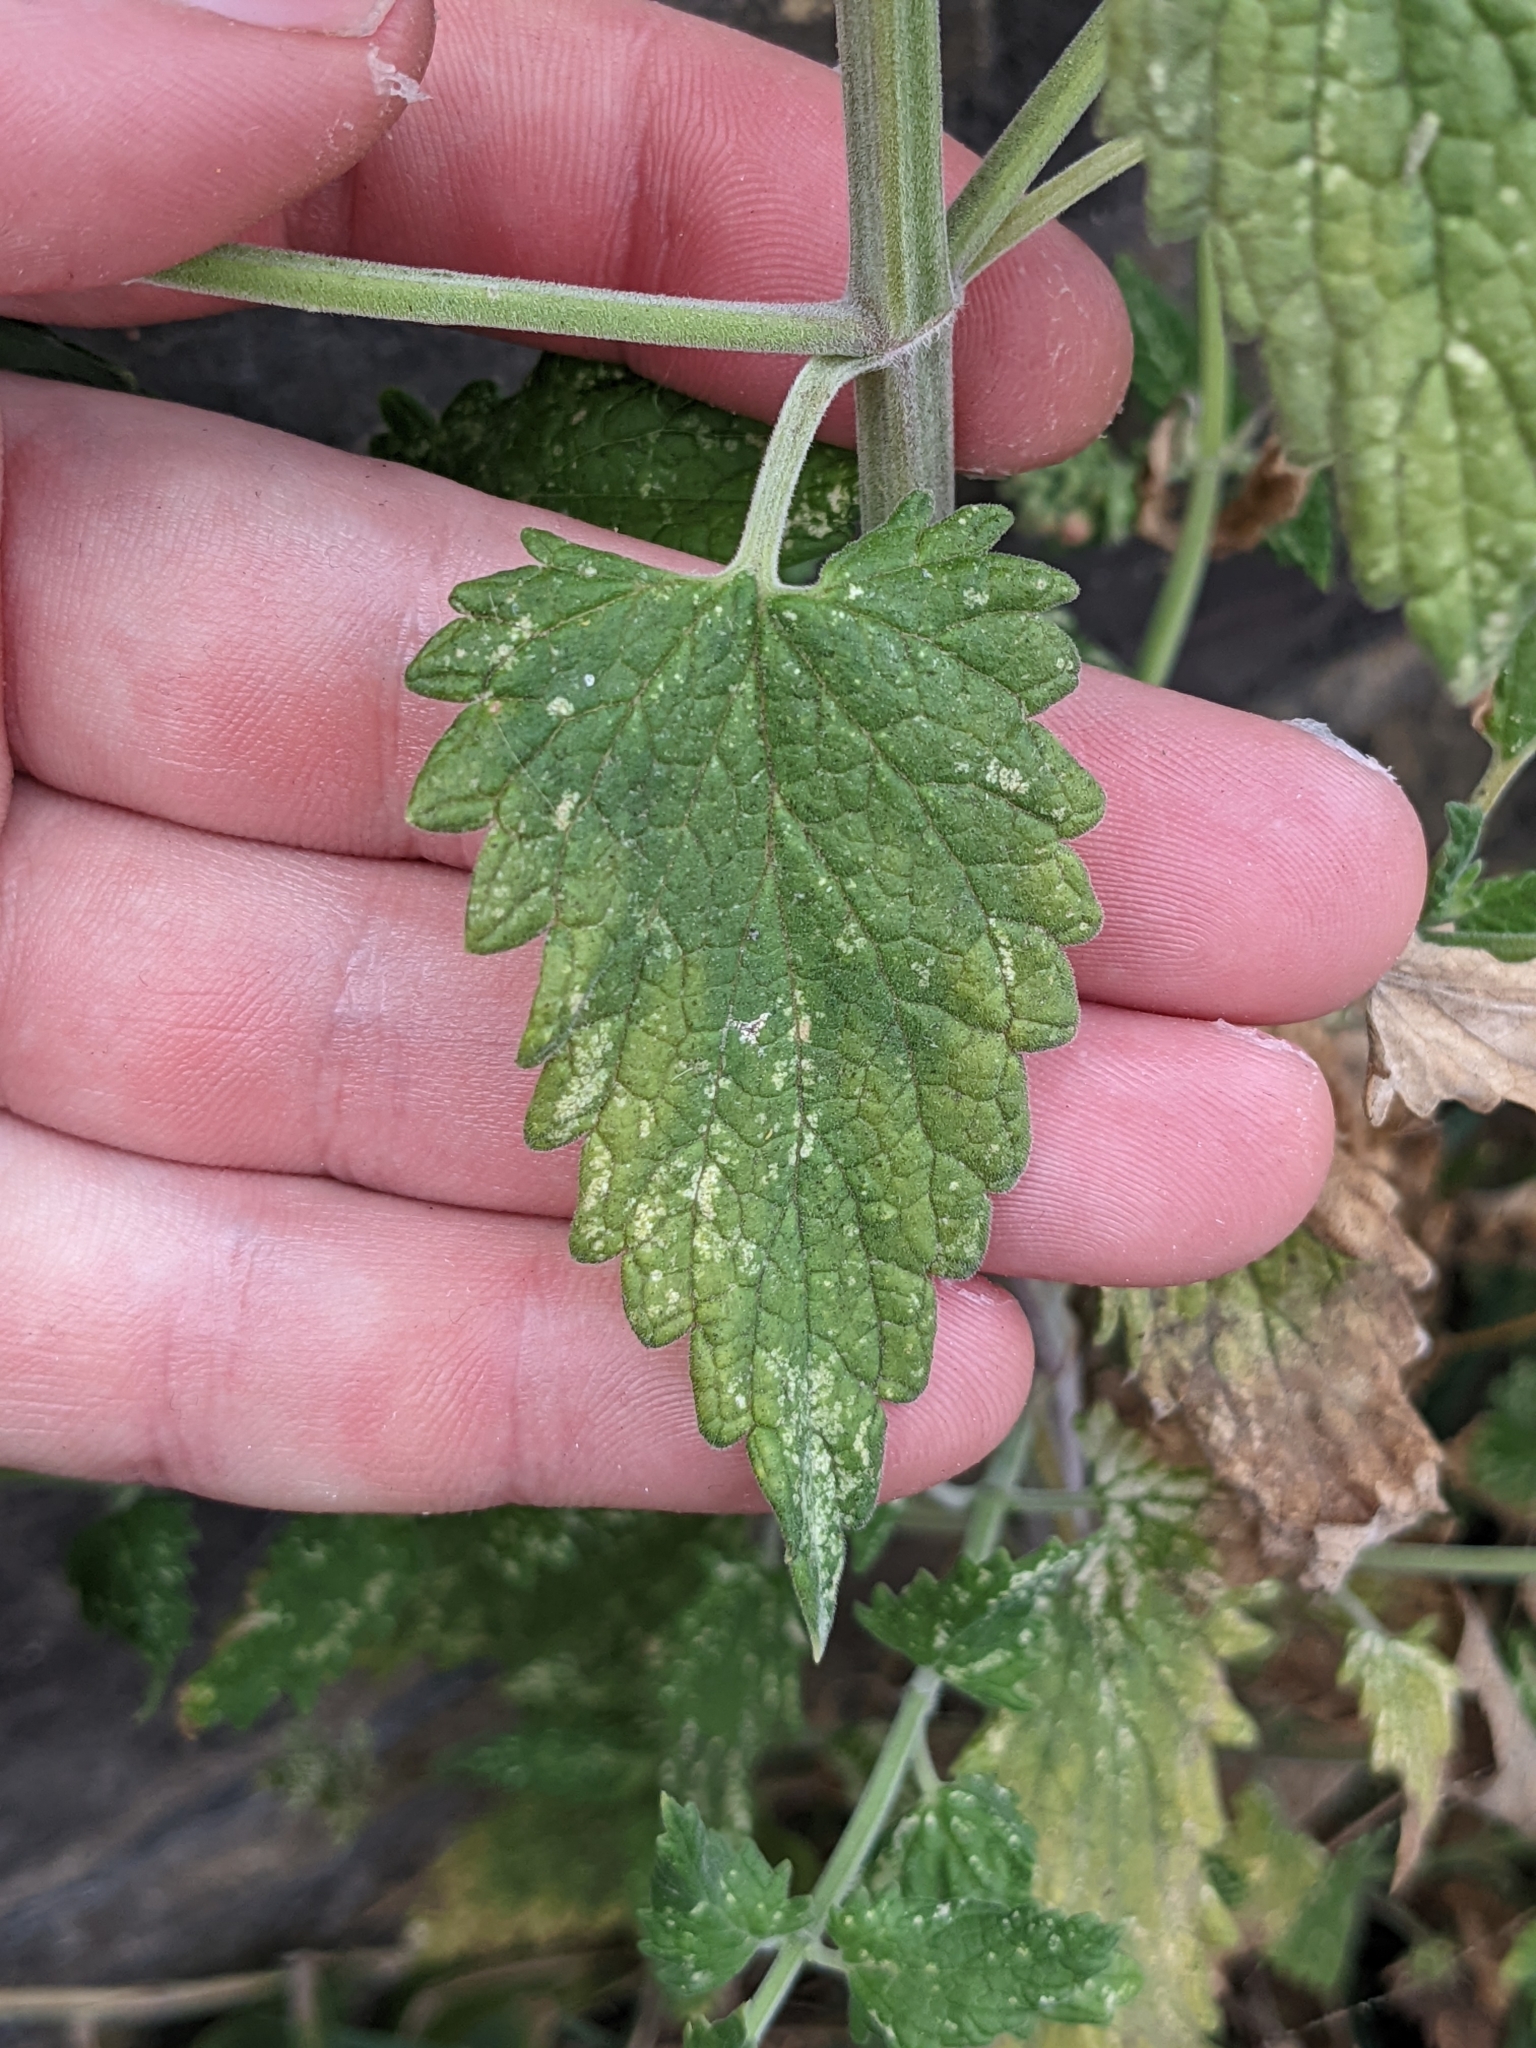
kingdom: Plantae
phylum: Tracheophyta
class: Magnoliopsida
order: Lamiales
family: Lamiaceae
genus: Nepeta
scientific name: Nepeta cataria
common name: Catnip
